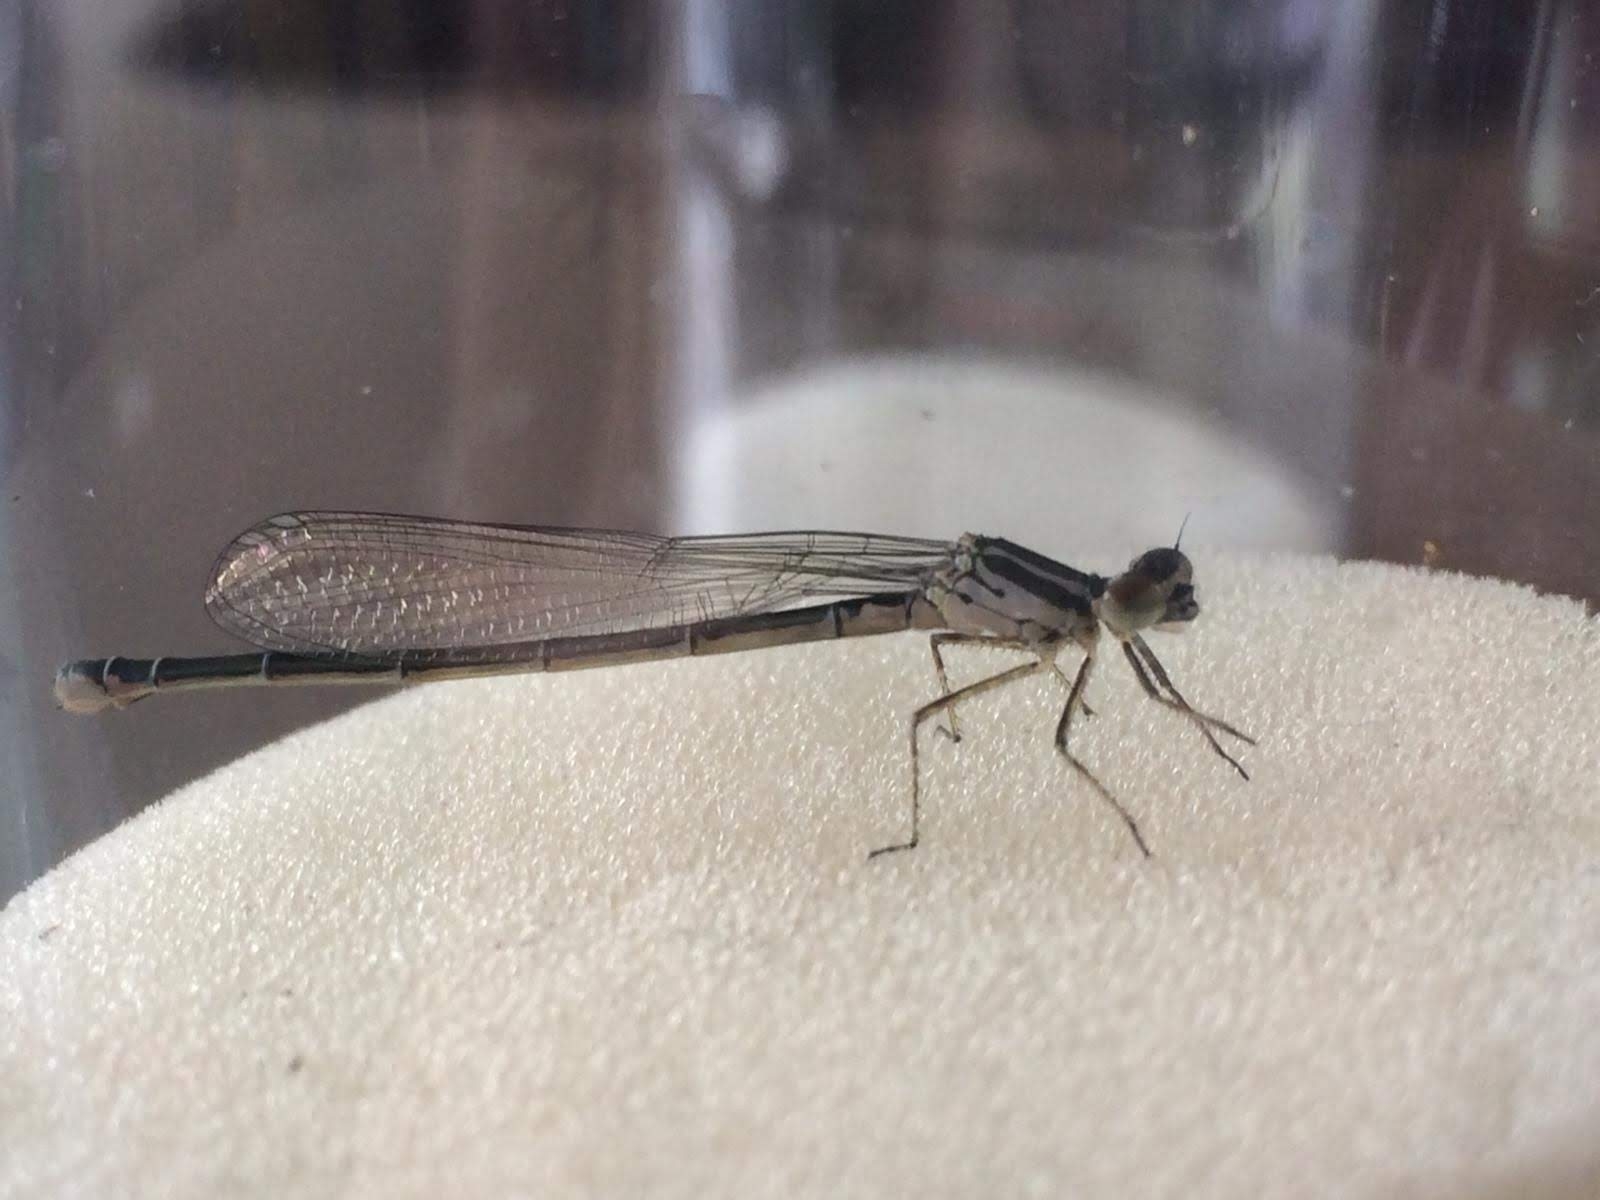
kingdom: Animalia
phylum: Arthropoda
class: Insecta
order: Odonata
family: Coenagrionidae
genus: Coenagrion
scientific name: Coenagrion puella
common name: Azure damselfly
